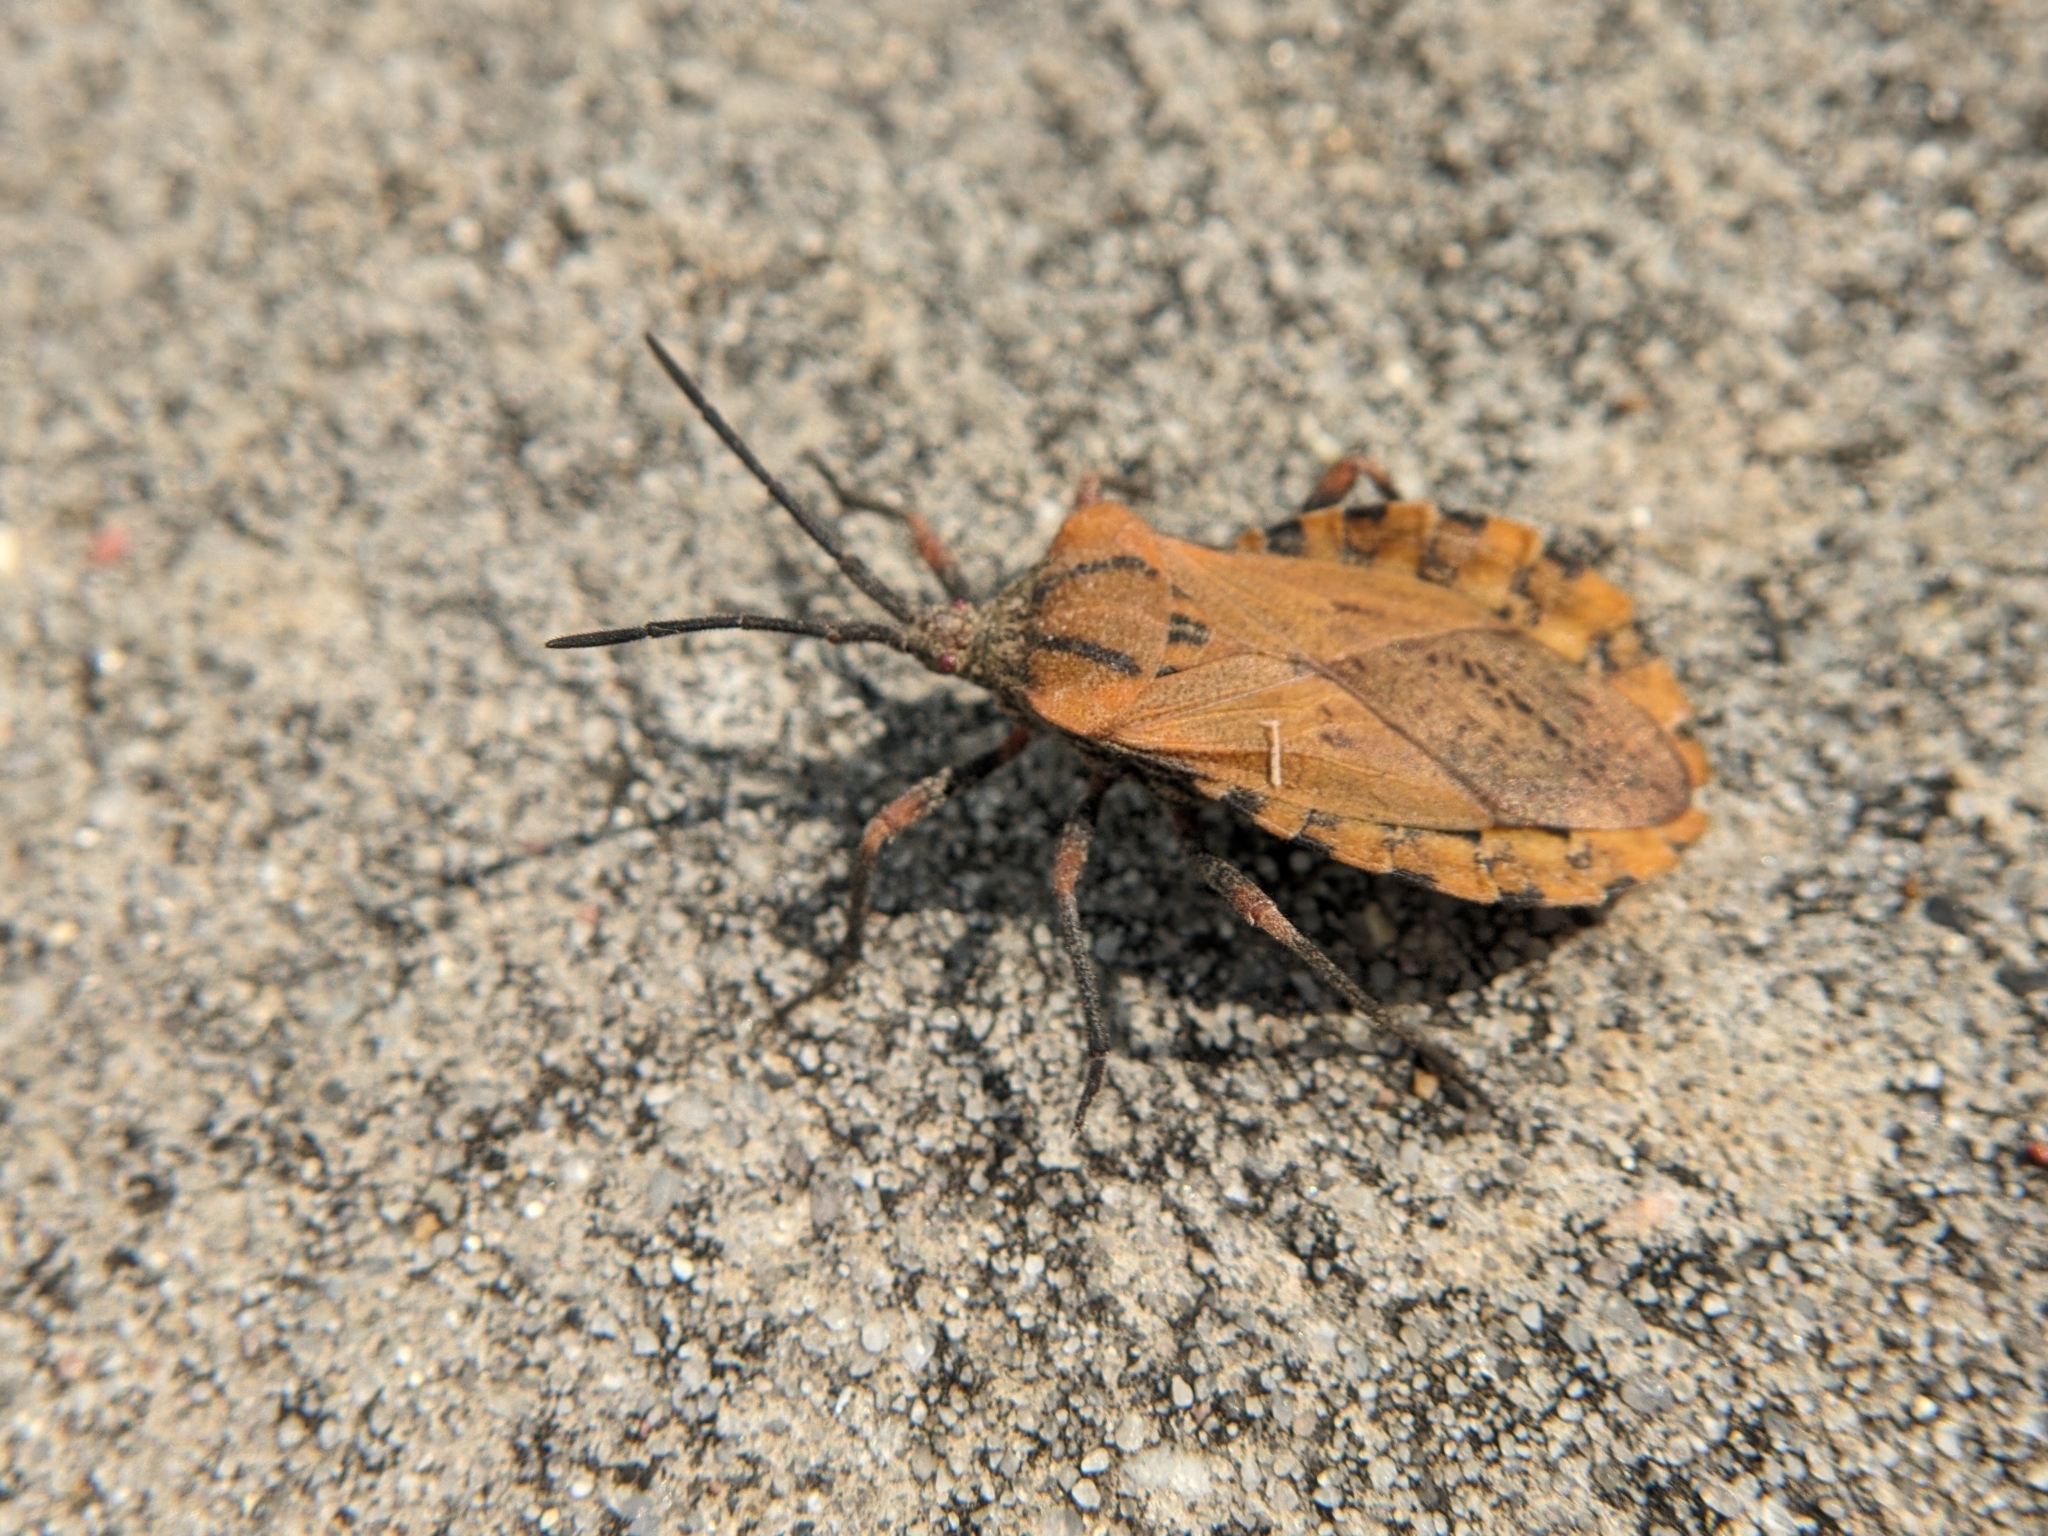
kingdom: Animalia
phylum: Arthropoda
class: Insecta
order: Hemiptera
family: Coreidae
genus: Spartocera
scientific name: Spartocera fusca
